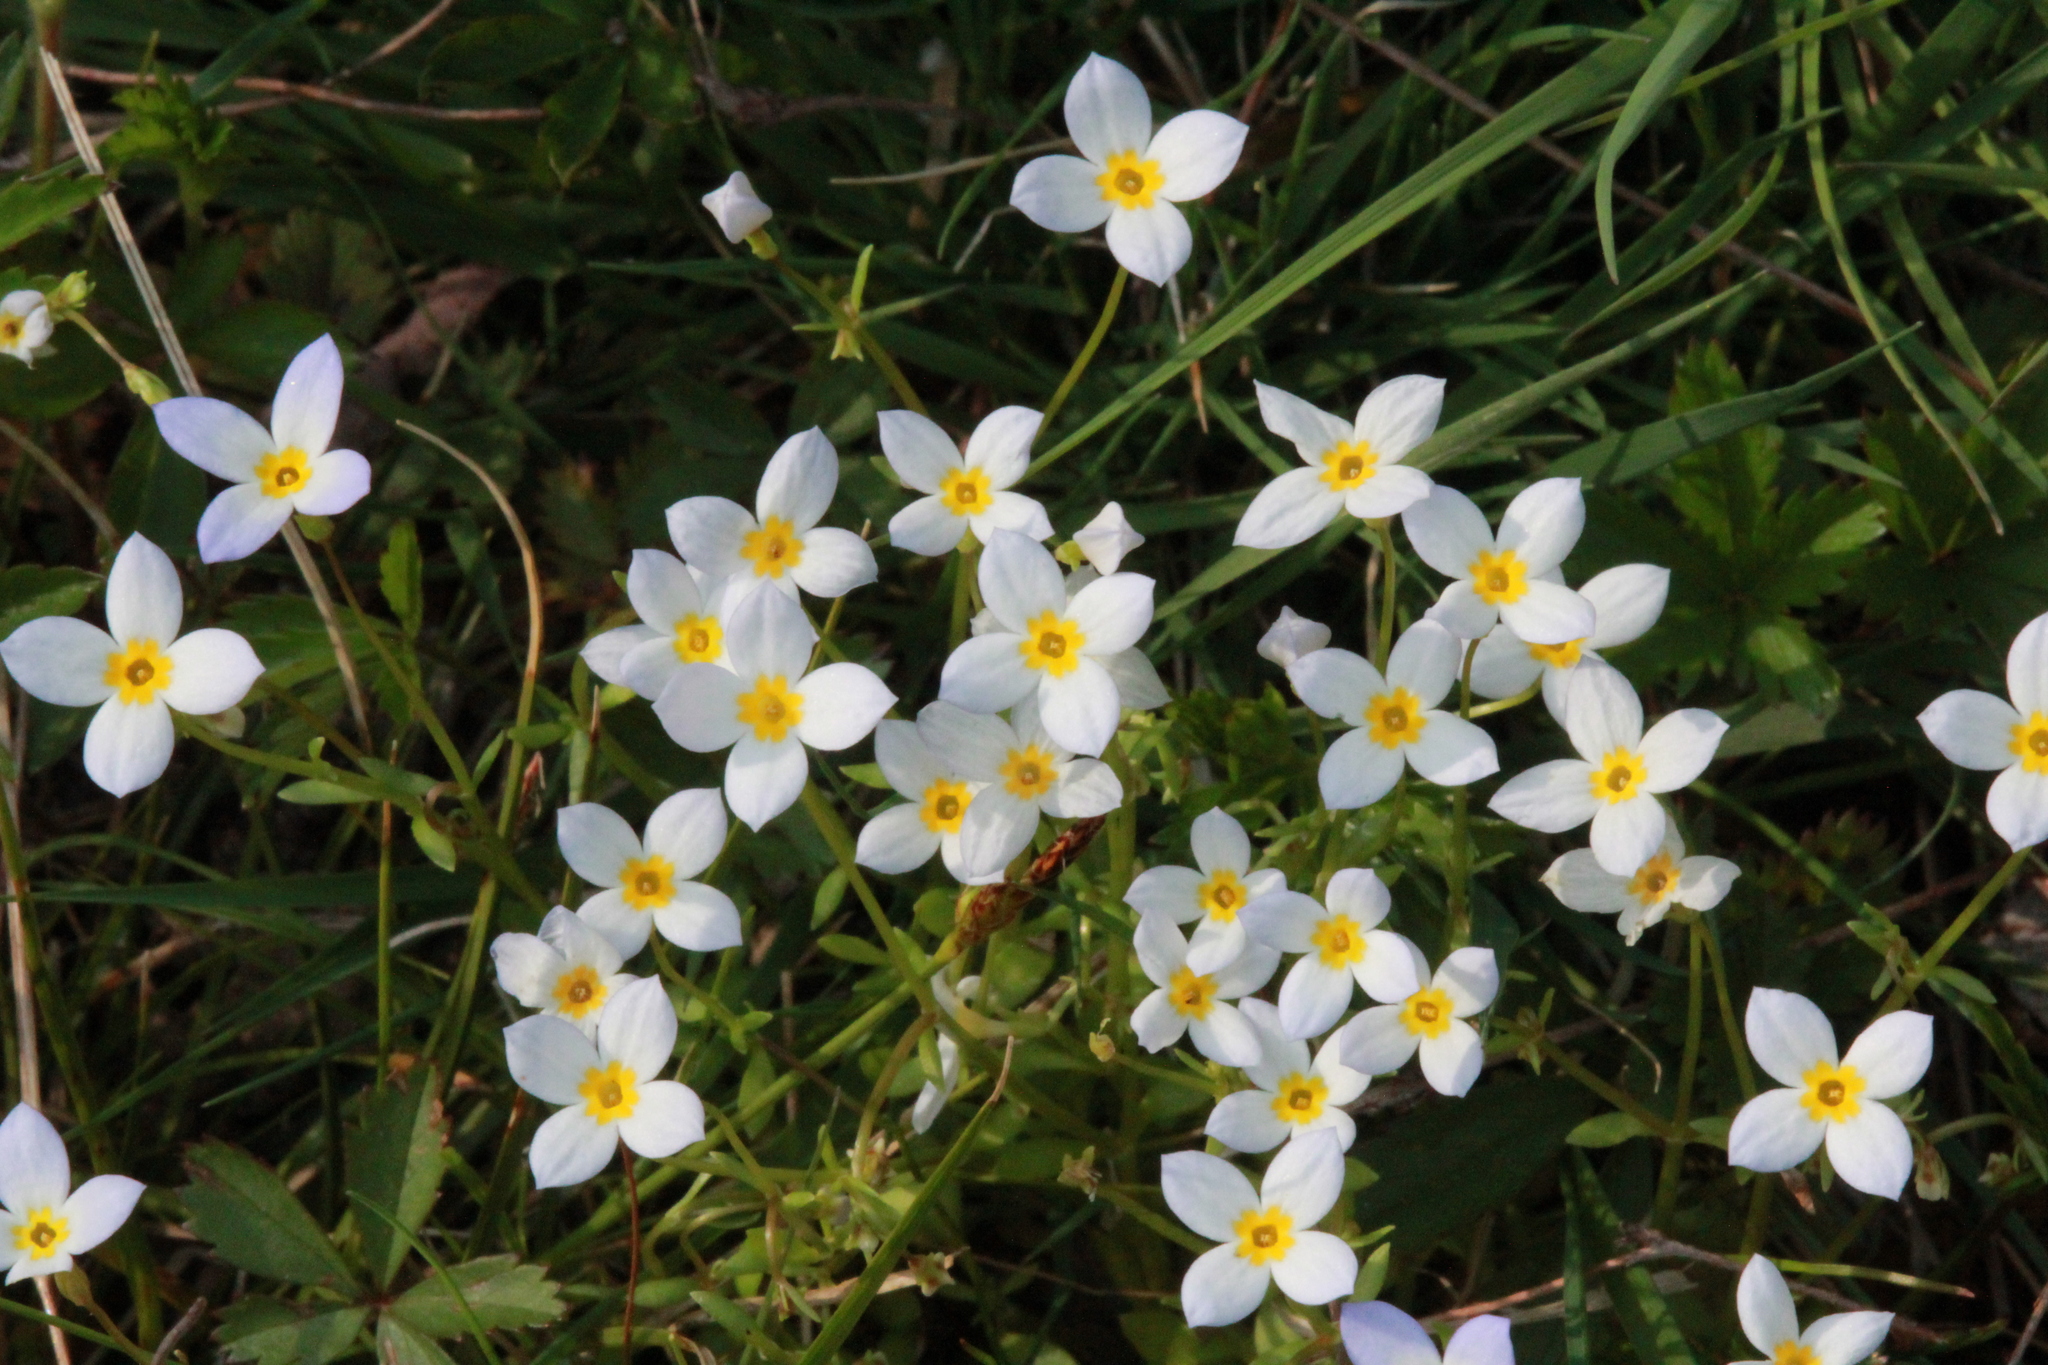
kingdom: Plantae
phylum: Tracheophyta
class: Magnoliopsida
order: Gentianales
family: Rubiaceae
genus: Houstonia
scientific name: Houstonia caerulea
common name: Bluets
